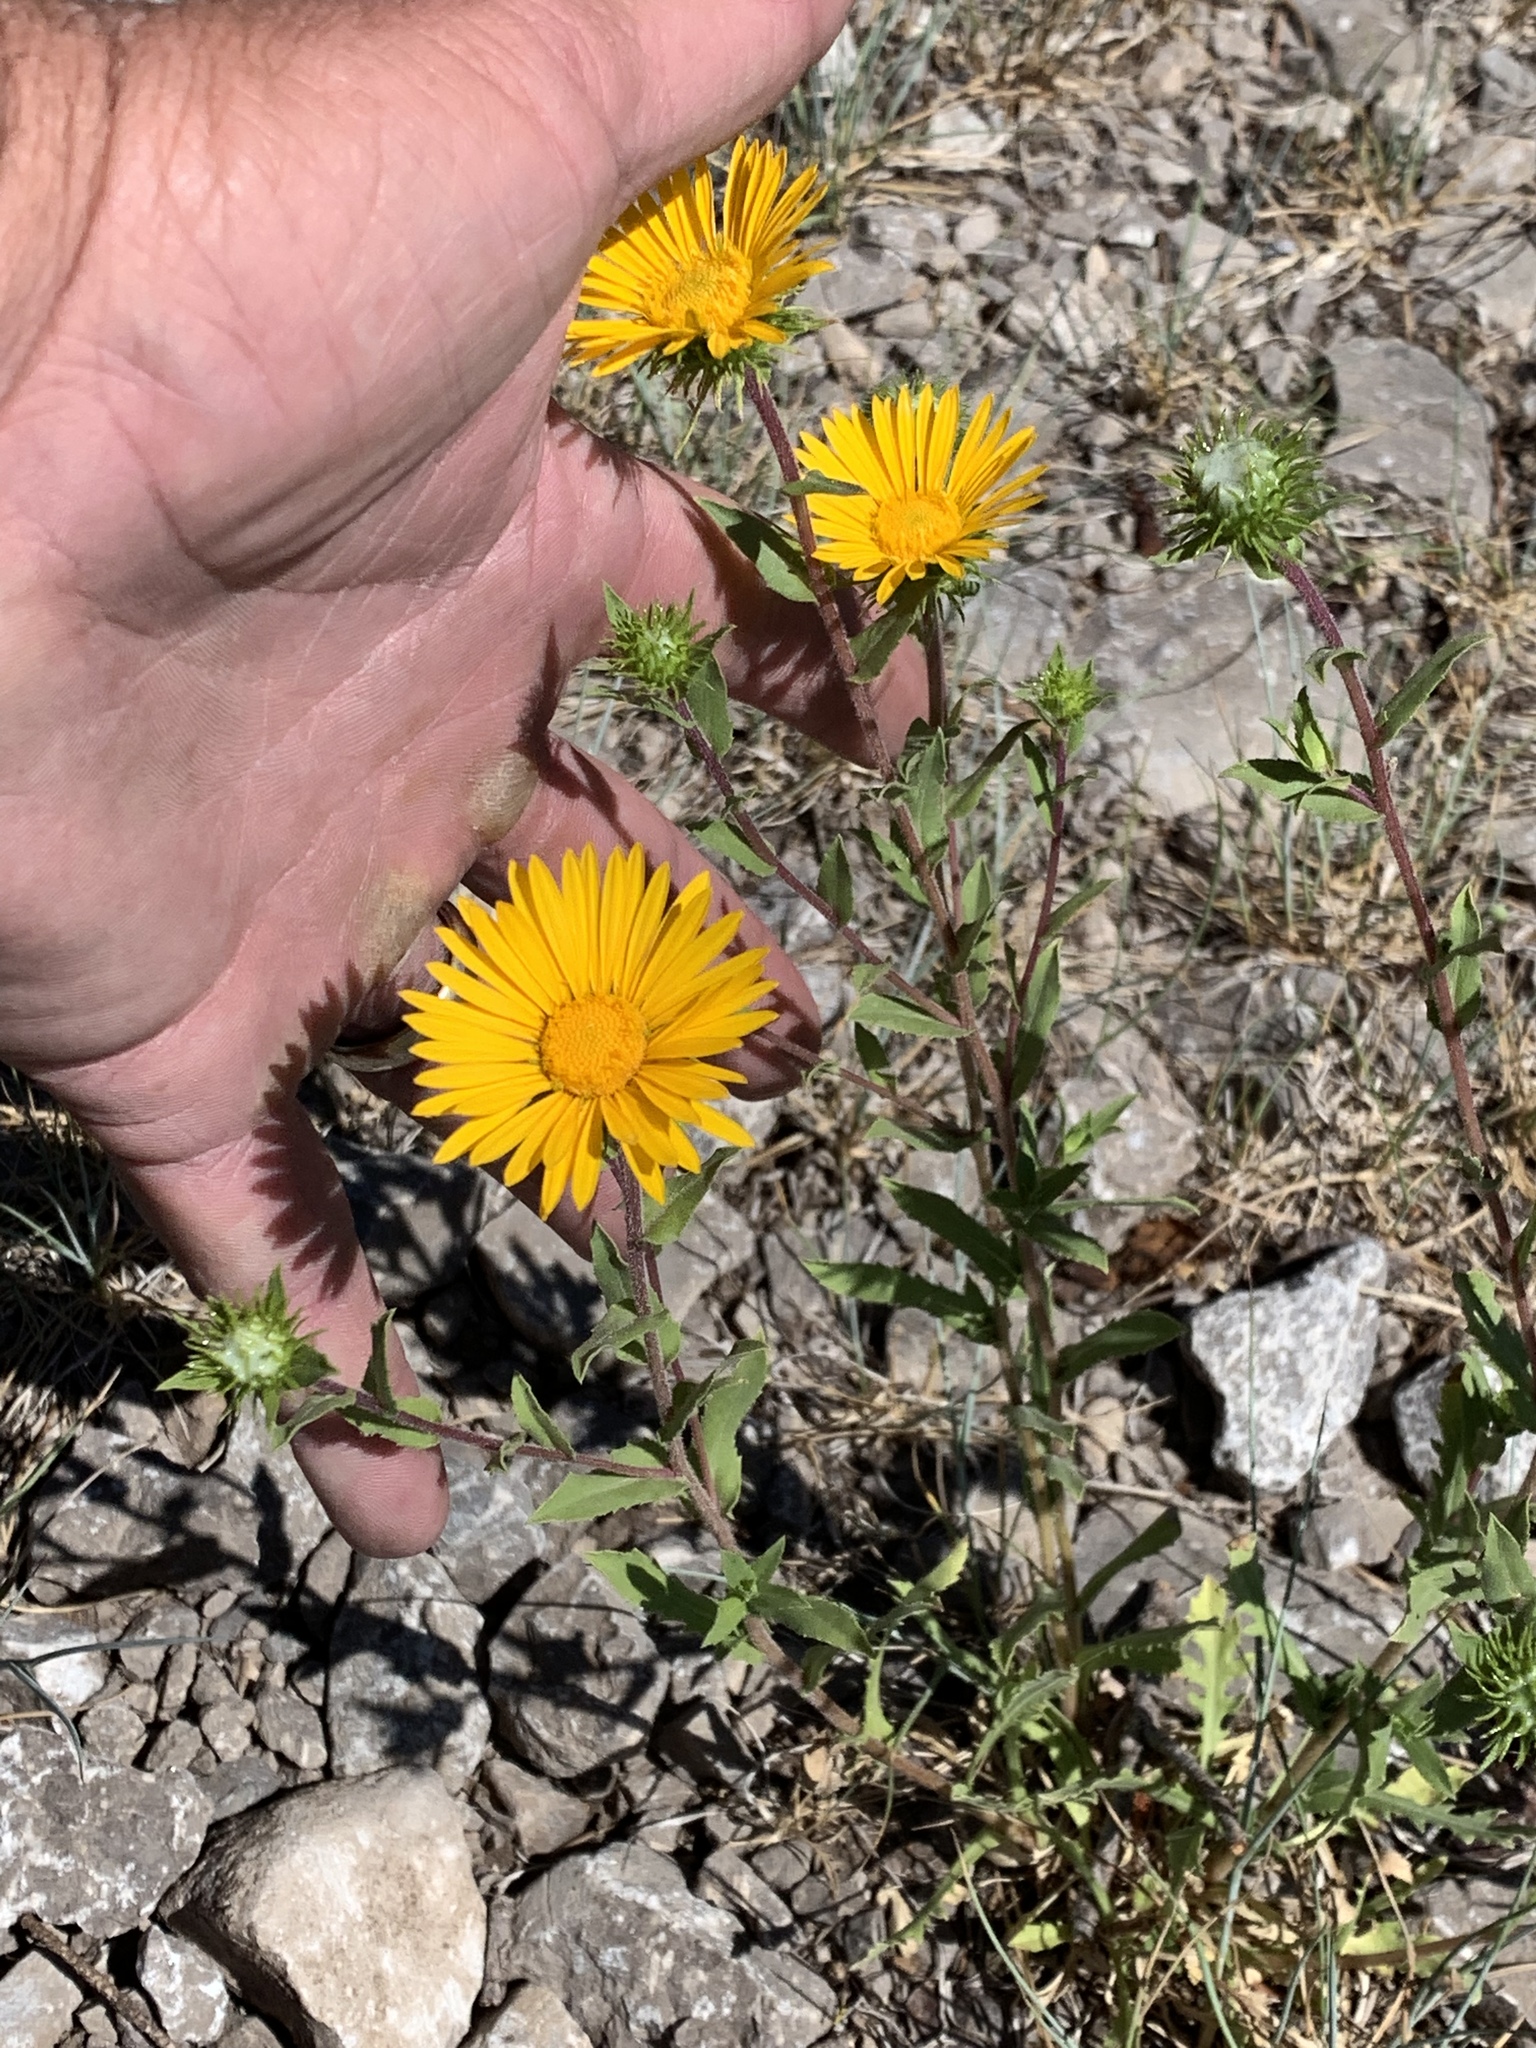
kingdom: Plantae
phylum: Tracheophyta
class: Magnoliopsida
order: Asterales
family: Asteraceae
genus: Grindelia
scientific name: Grindelia scabra
